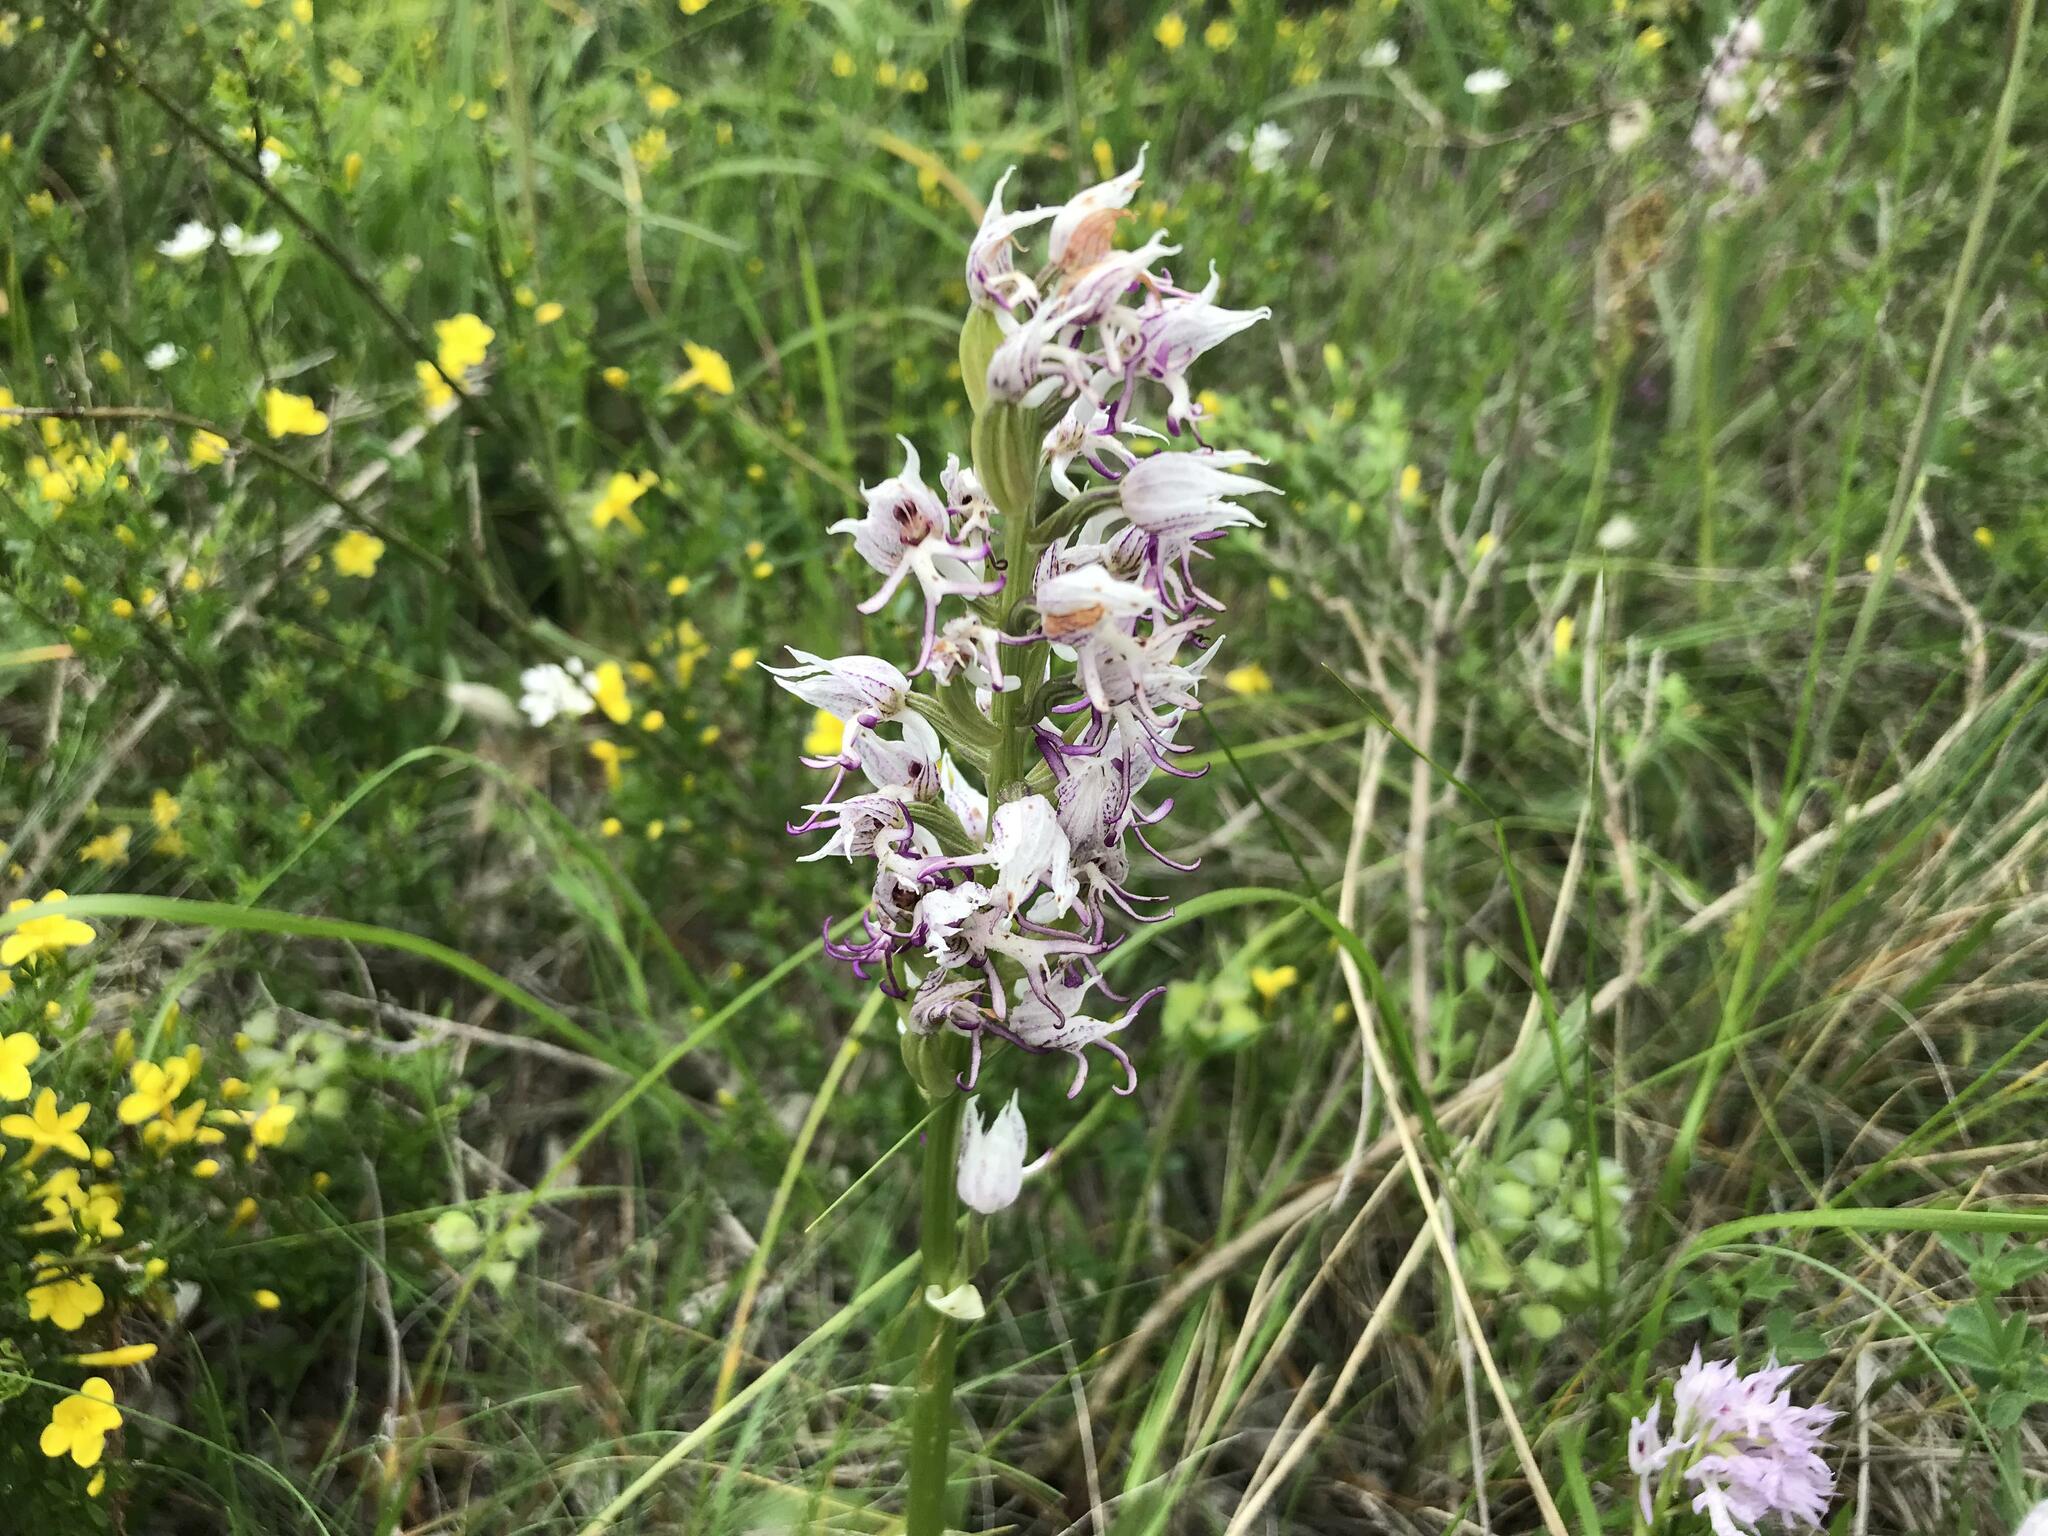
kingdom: Plantae
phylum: Tracheophyta
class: Liliopsida
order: Asparagales
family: Orchidaceae
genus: Orchis
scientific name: Orchis simia
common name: Monkey orchid
